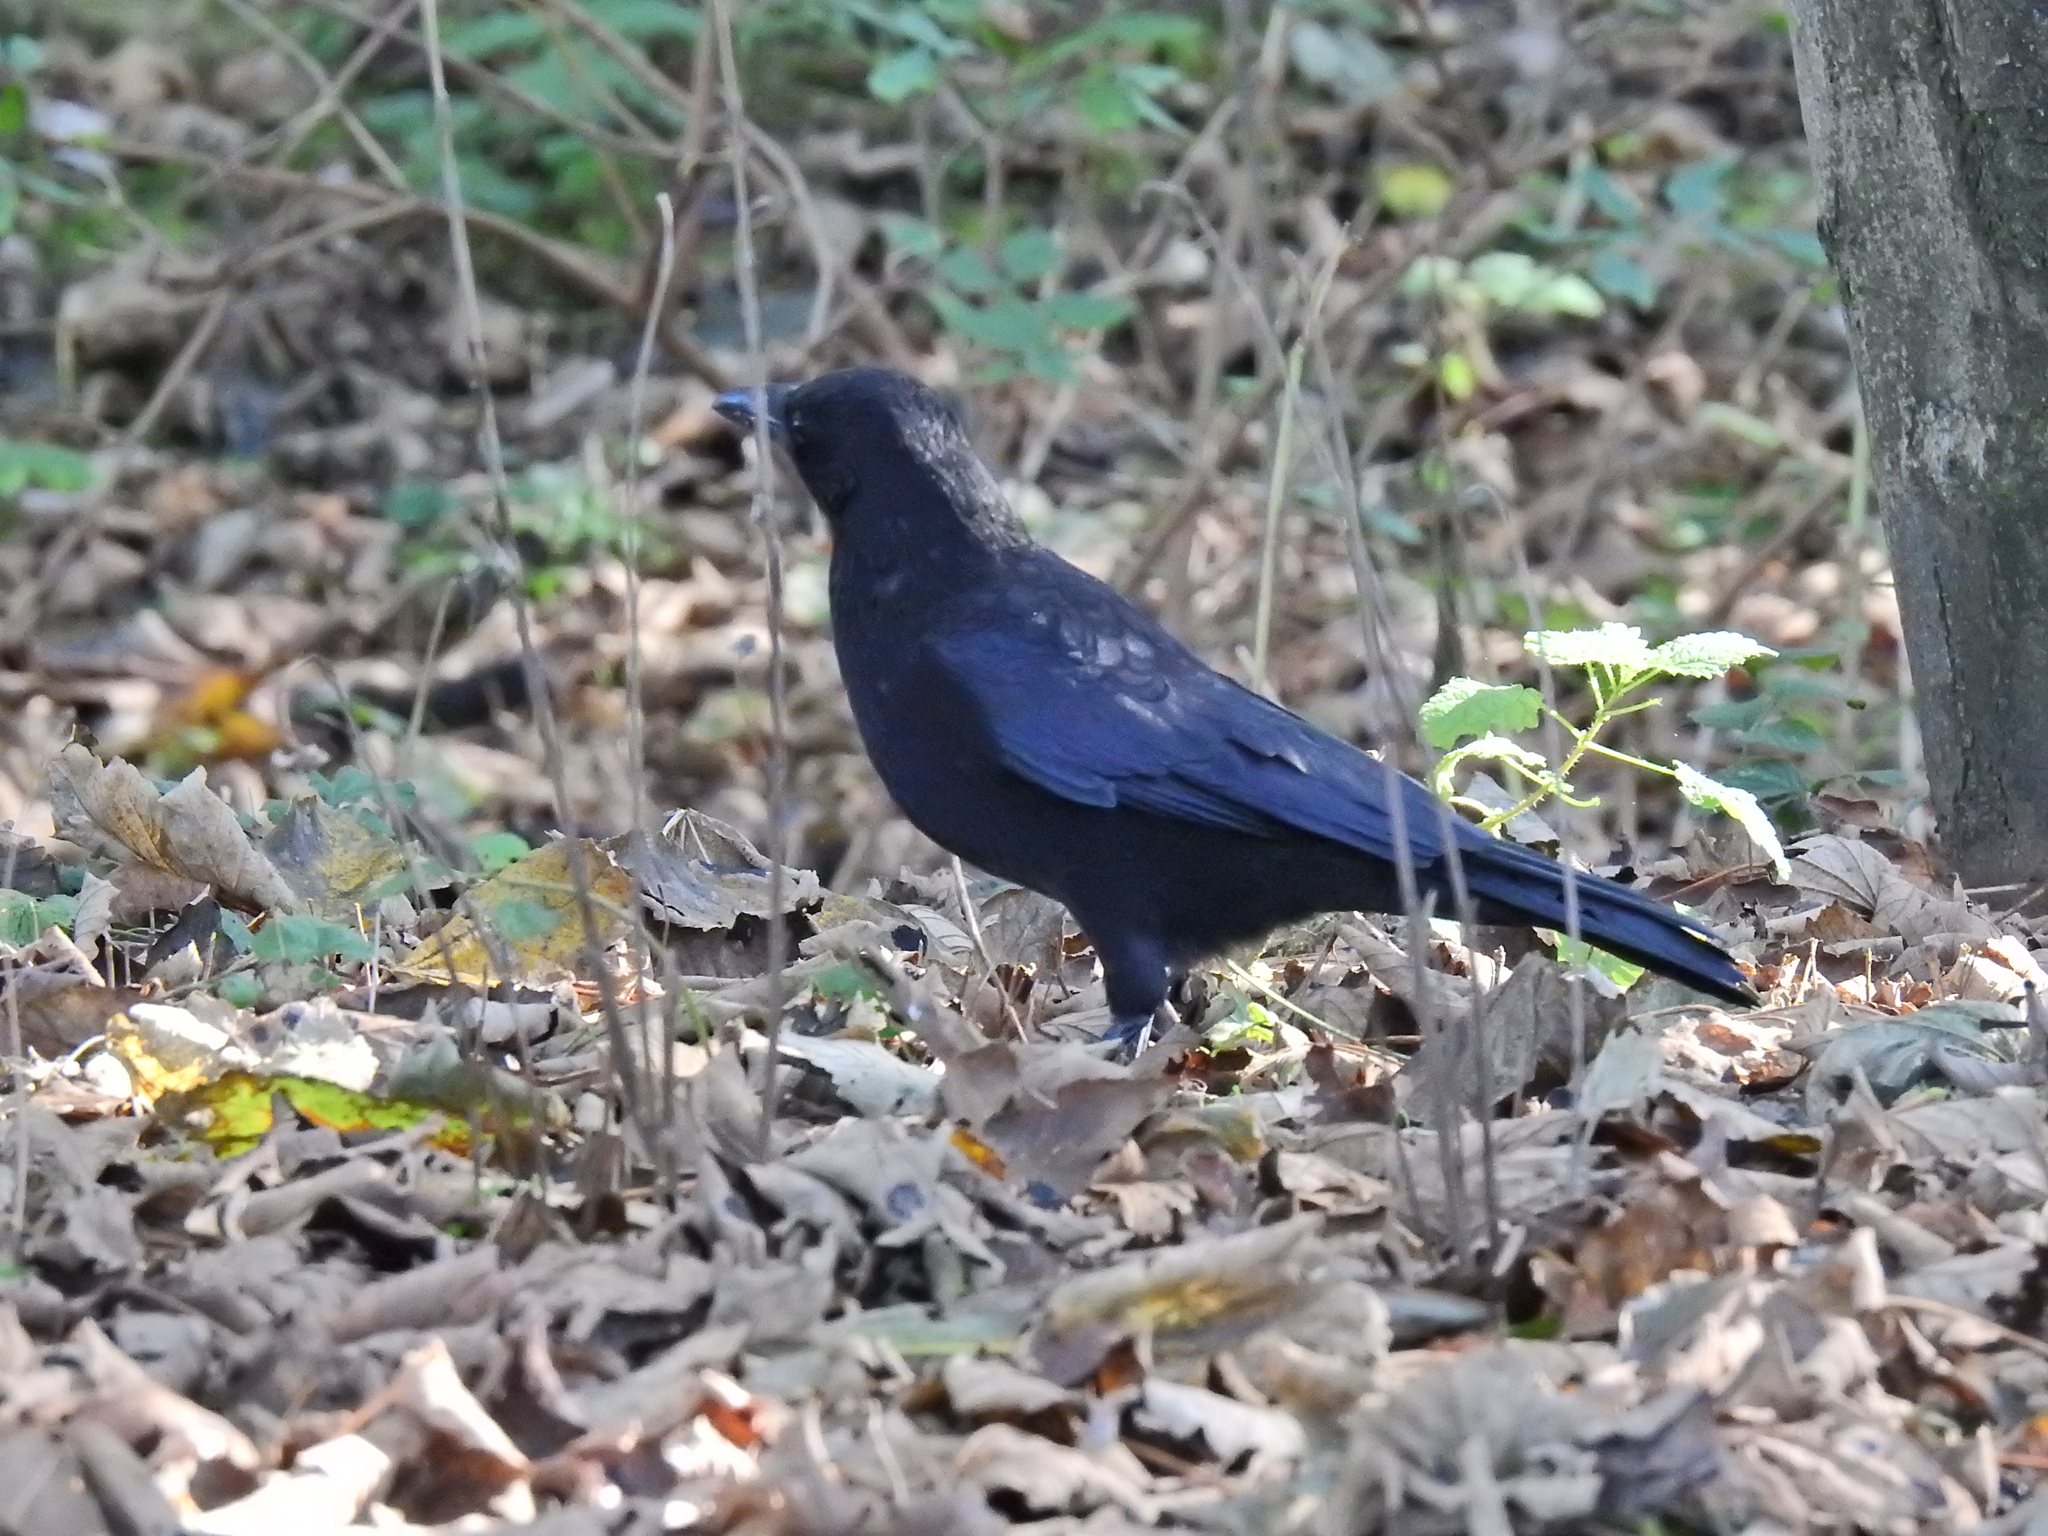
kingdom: Animalia
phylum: Chordata
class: Aves
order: Passeriformes
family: Corvidae
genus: Corvus
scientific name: Corvus corone
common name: Carrion crow
